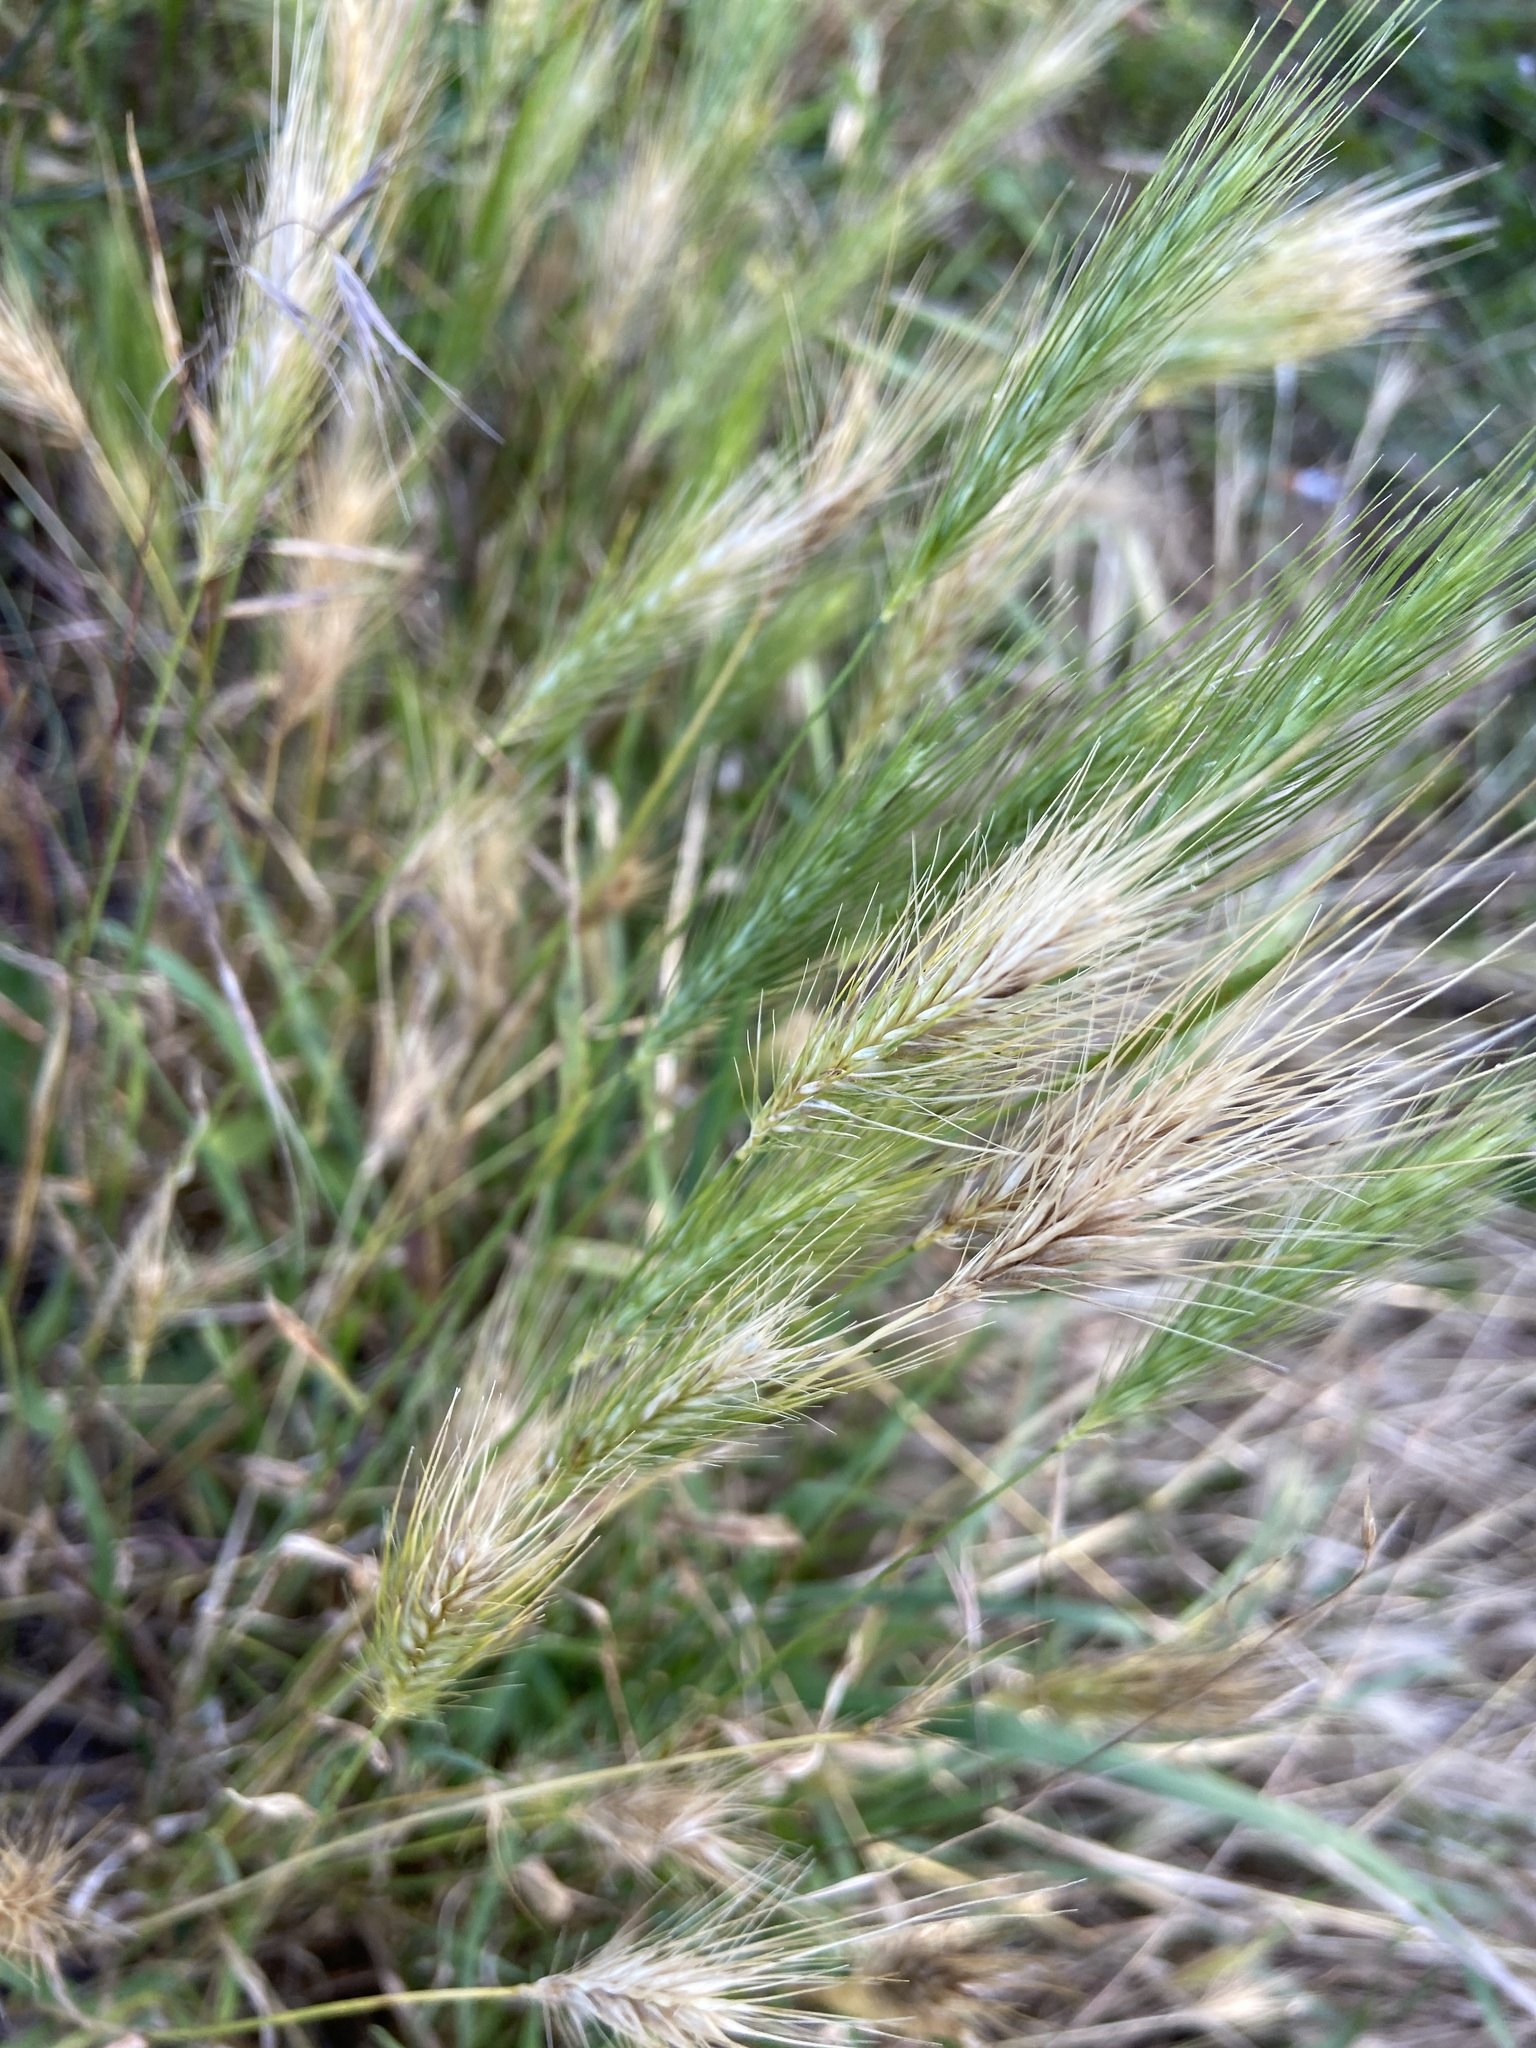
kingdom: Plantae
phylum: Tracheophyta
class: Liliopsida
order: Poales
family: Poaceae
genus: Hordeum
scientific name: Hordeum murinum
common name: Wall barley
